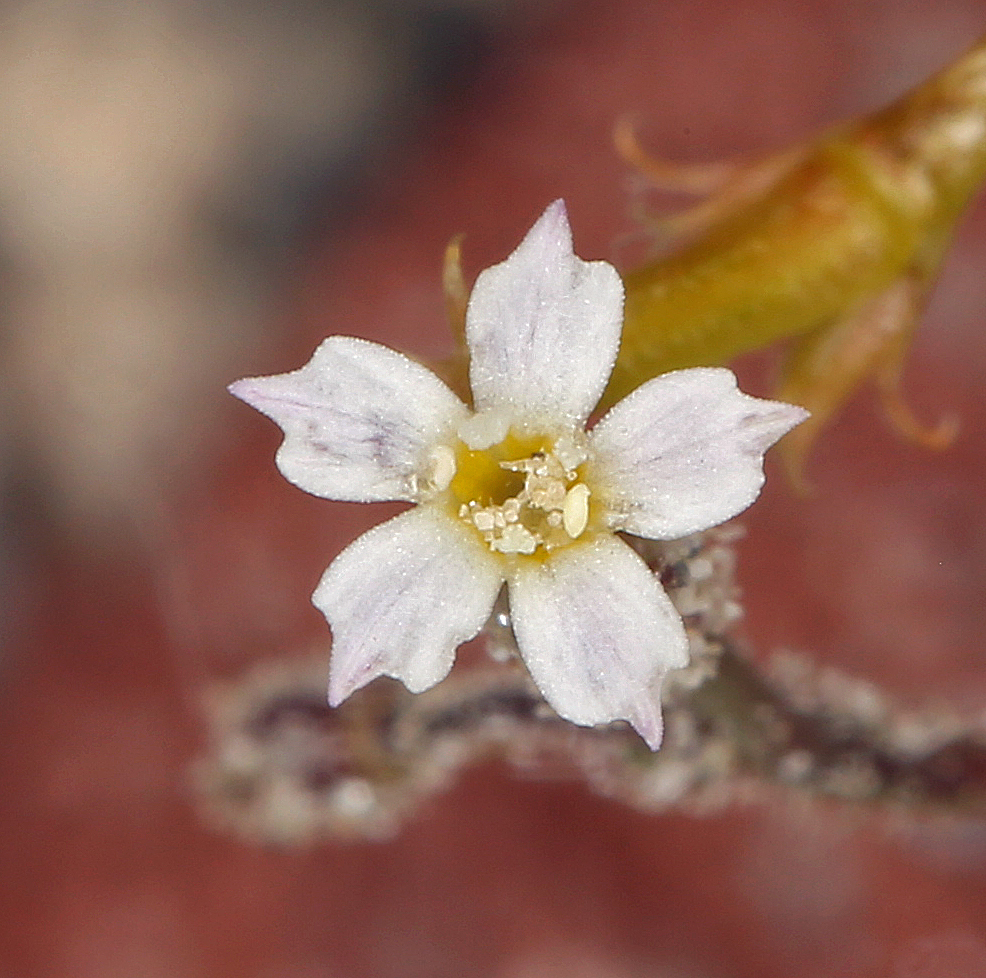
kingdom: Plantae
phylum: Tracheophyta
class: Magnoliopsida
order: Ericales
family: Polemoniaceae
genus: Aliciella
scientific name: Aliciella leptomeria
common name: Sand gilia
